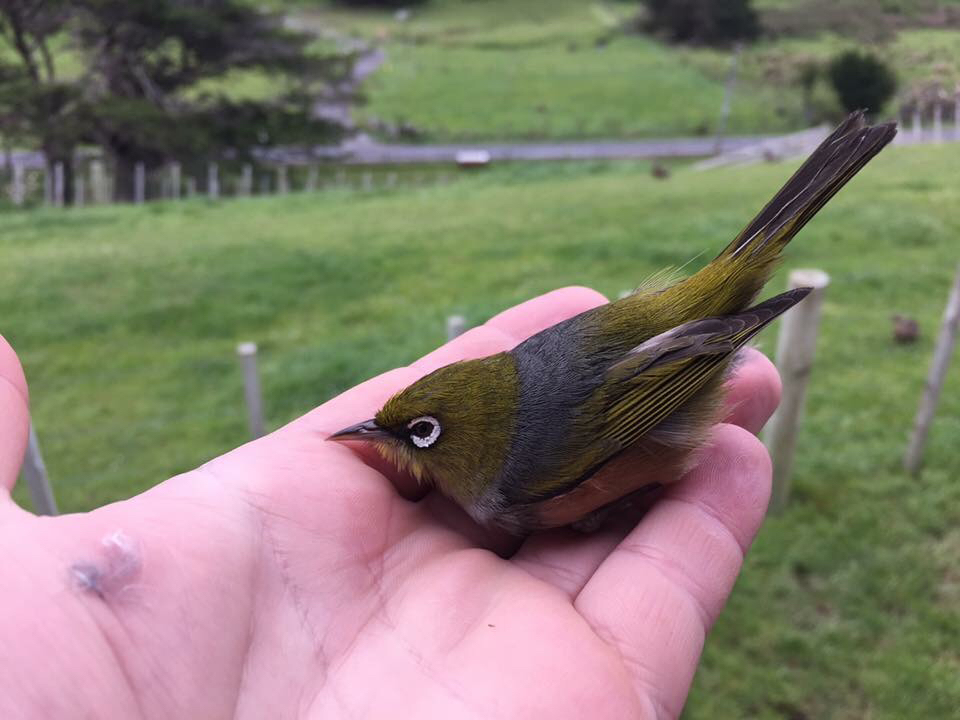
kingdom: Animalia
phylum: Chordata
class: Aves
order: Passeriformes
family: Zosteropidae
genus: Zosterops
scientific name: Zosterops lateralis
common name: Silvereye
